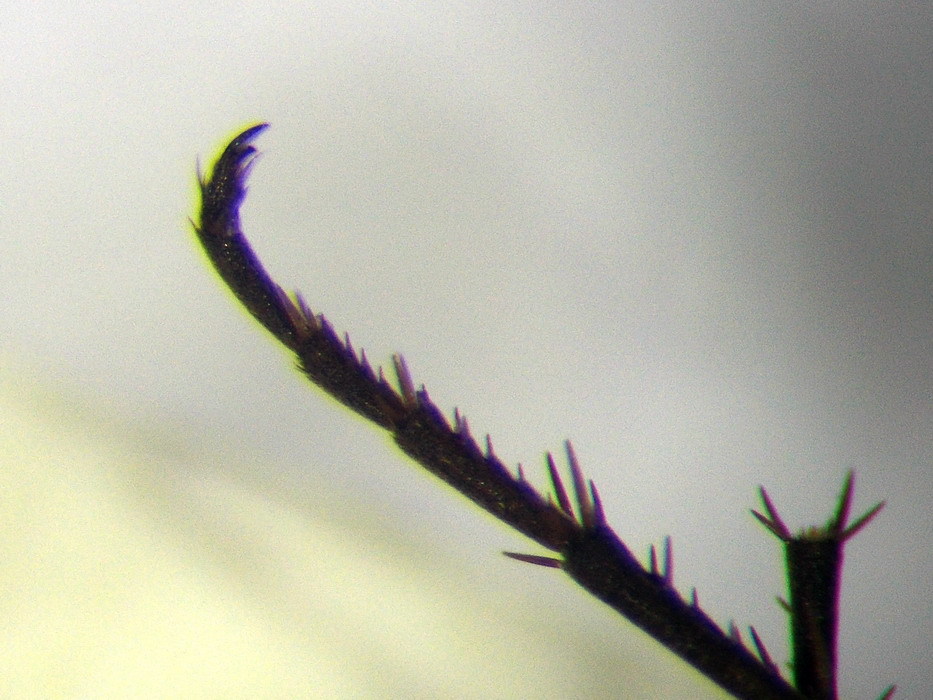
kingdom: Animalia
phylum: Arthropoda
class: Insecta
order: Hymenoptera
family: Pompilidae
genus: Telostegus
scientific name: Telostegus inermis
